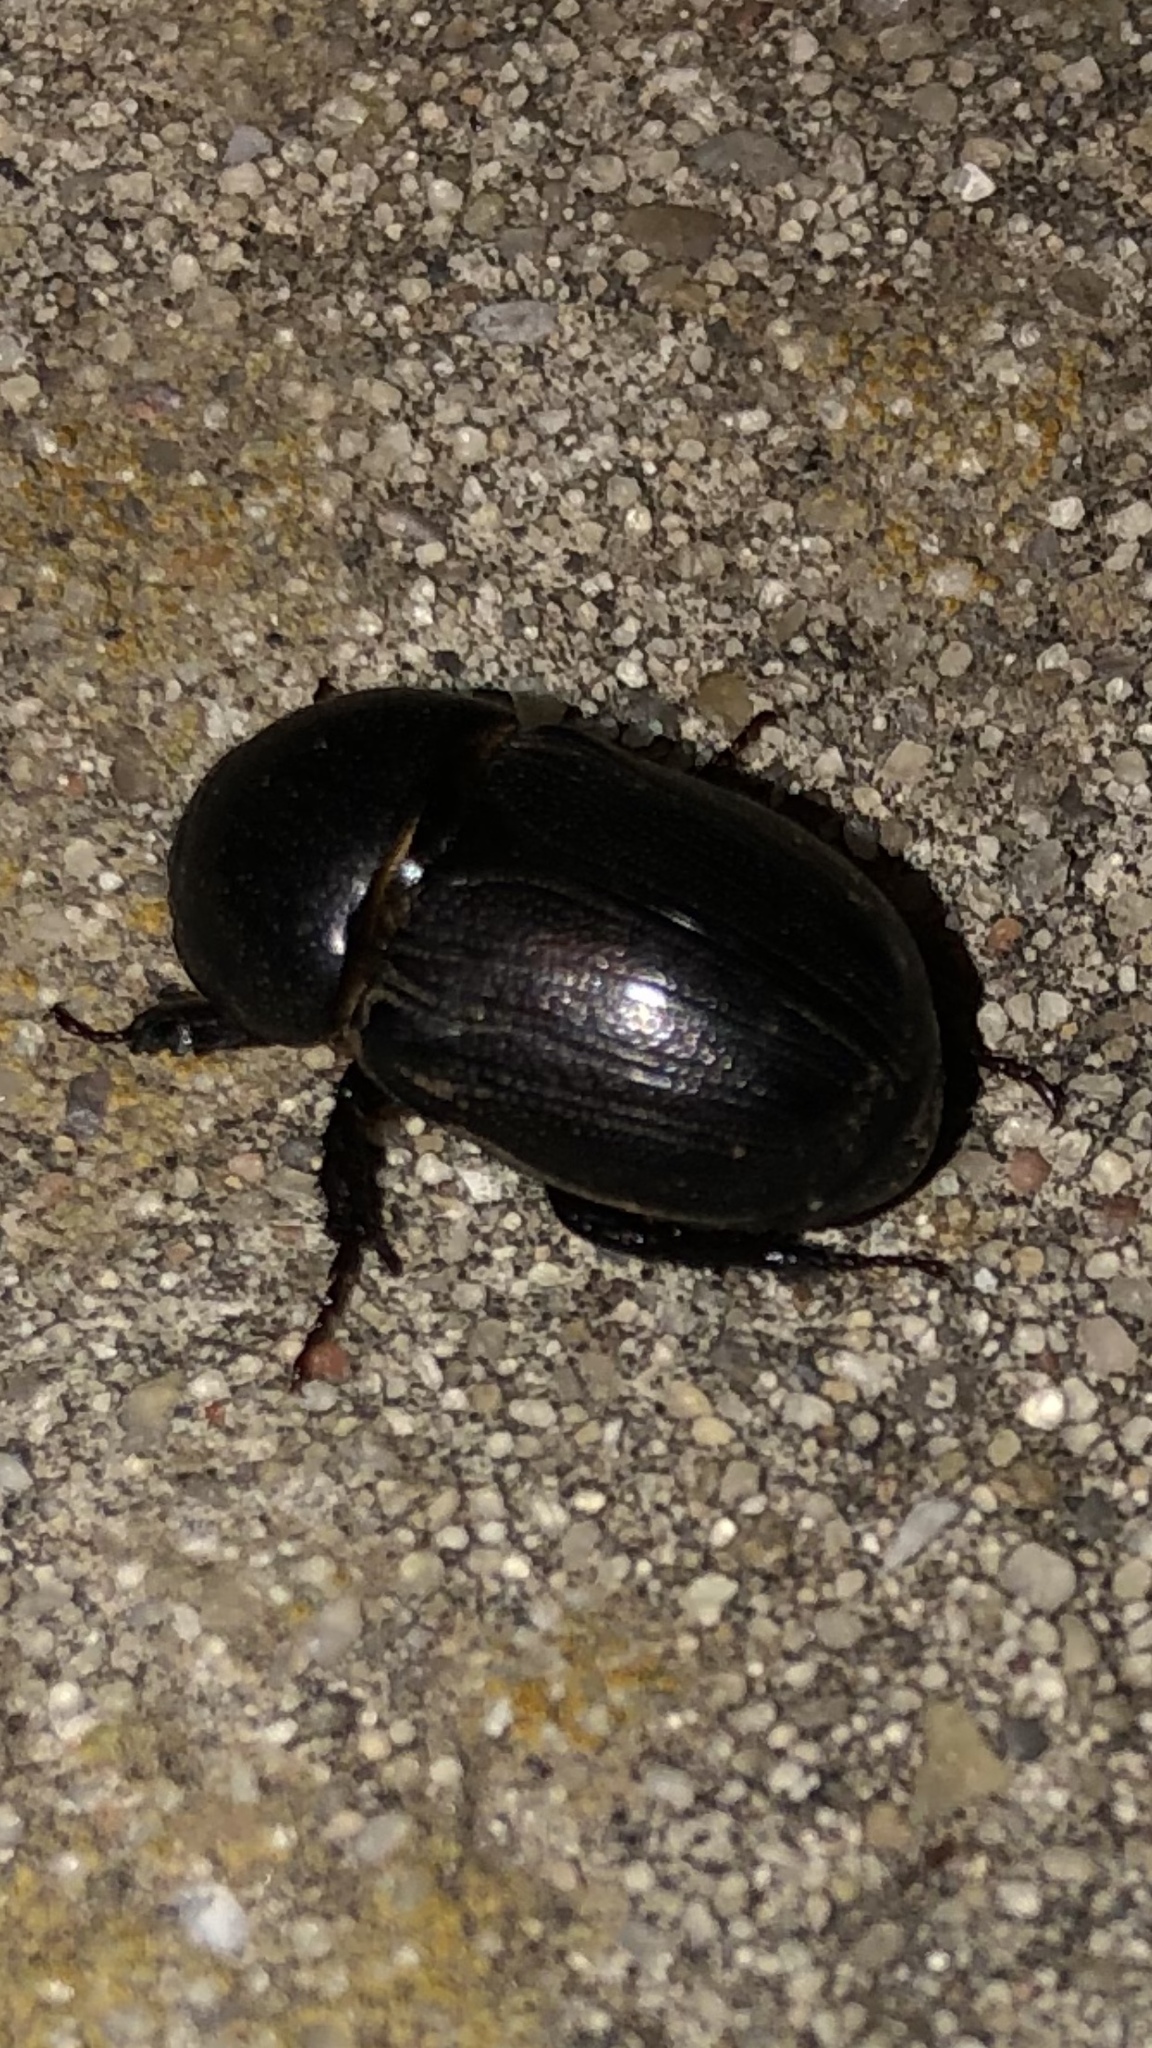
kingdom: Animalia
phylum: Arthropoda
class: Insecta
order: Coleoptera
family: Scarabaeidae
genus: Euetheola
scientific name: Euetheola humilis
